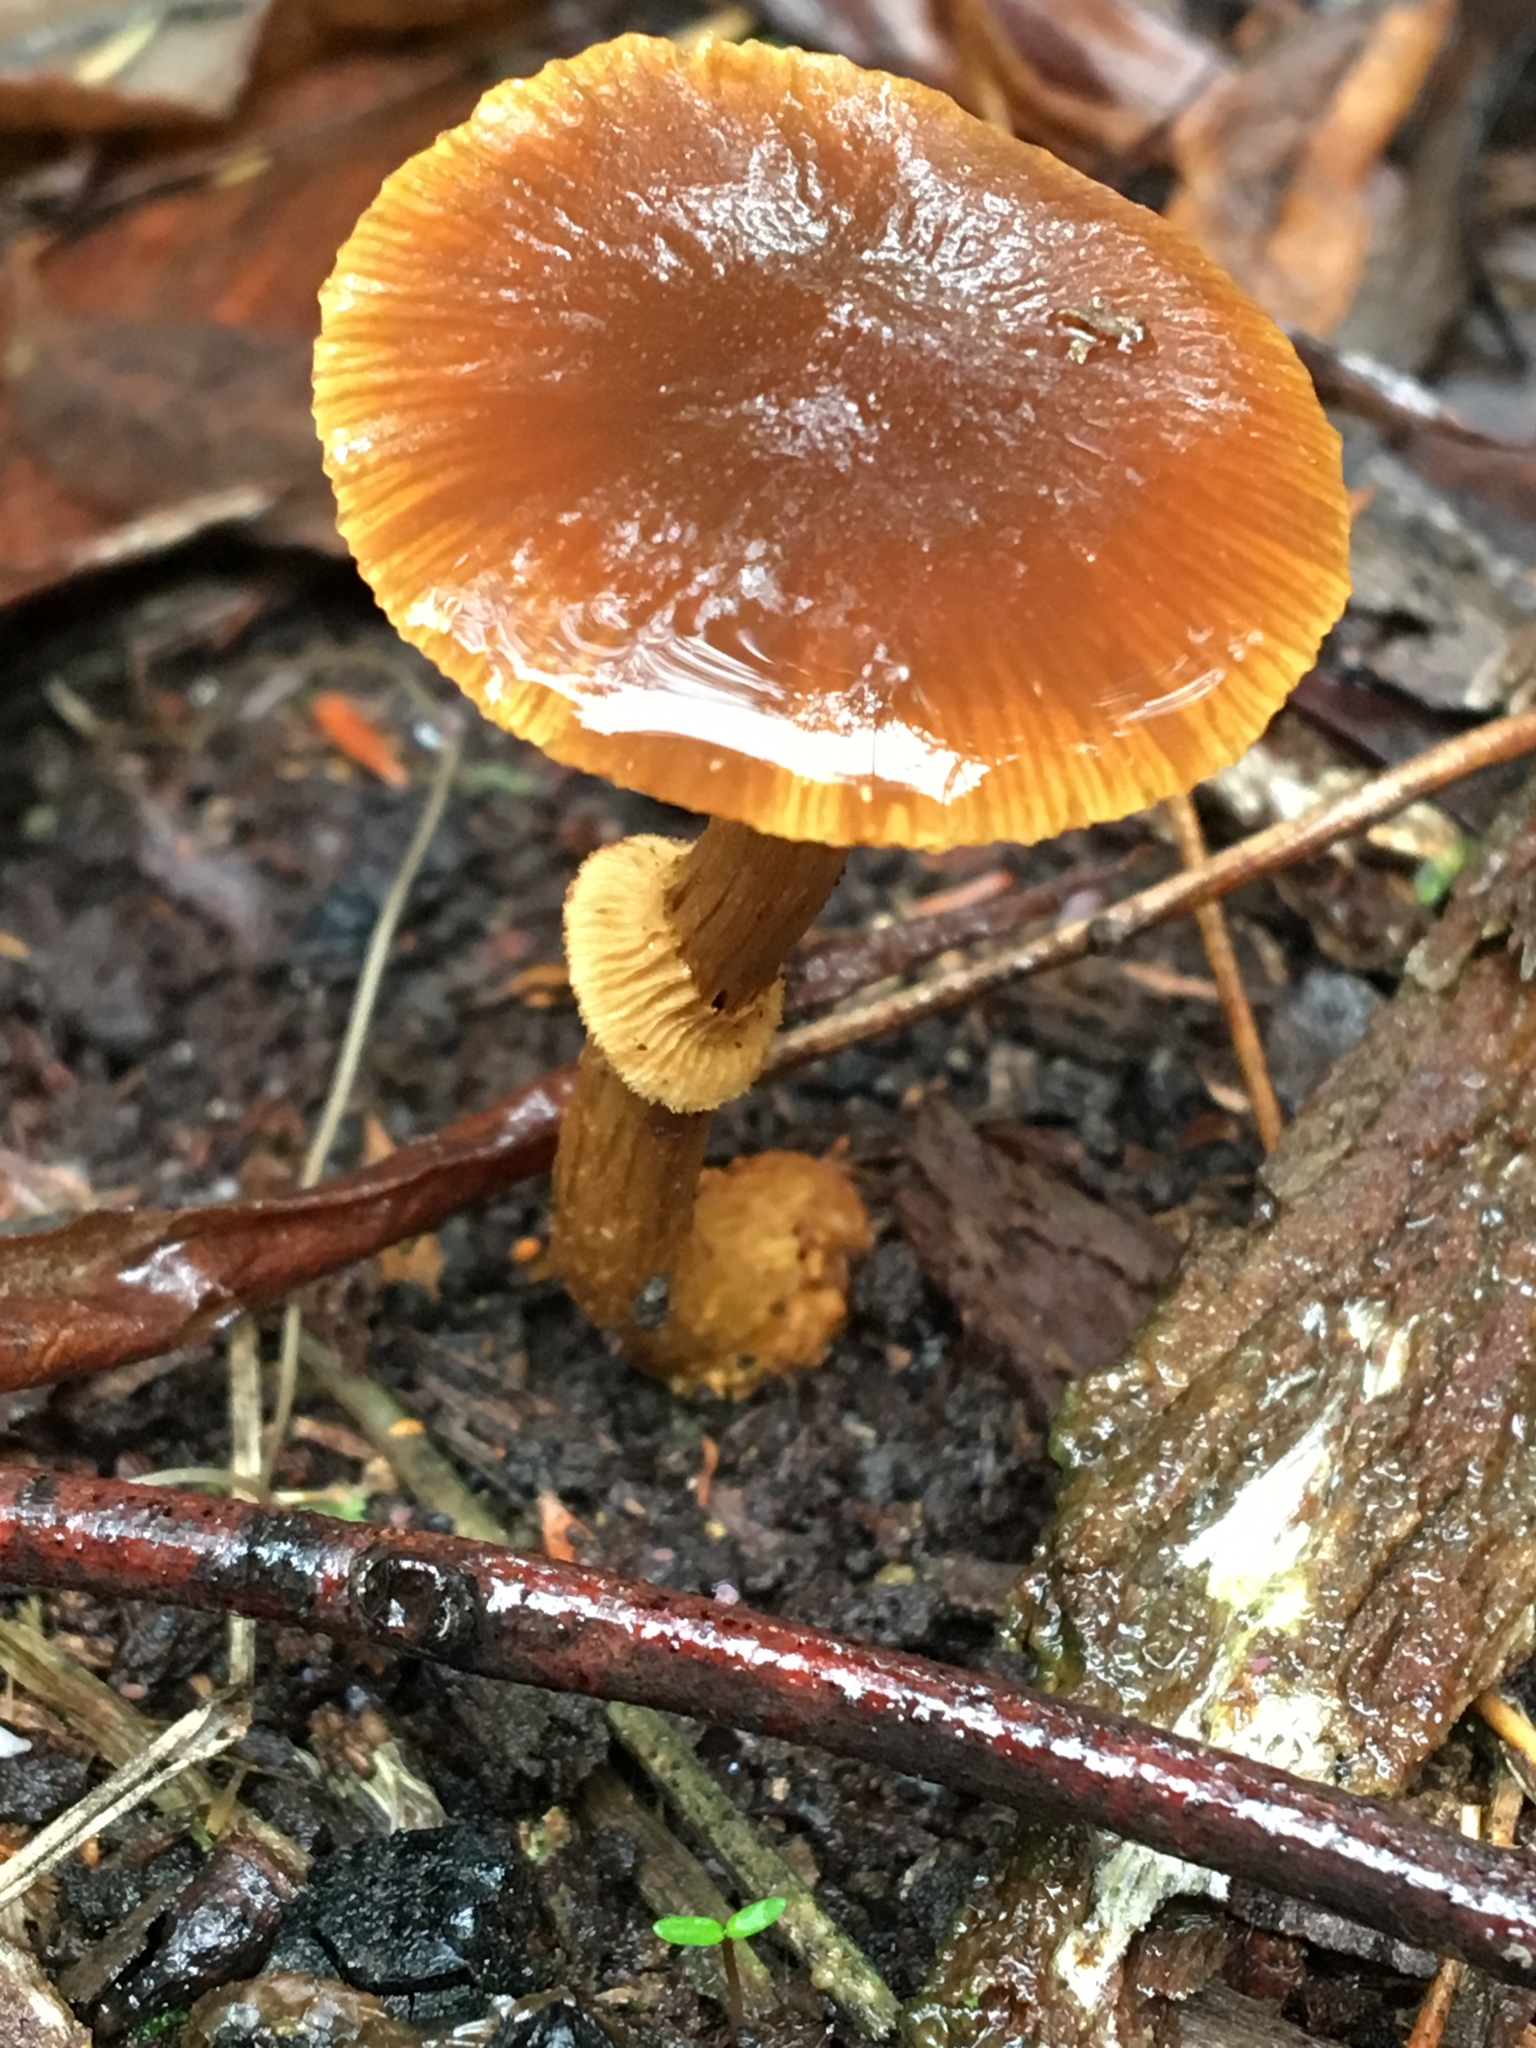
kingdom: Fungi
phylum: Basidiomycota
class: Agaricomycetes
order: Agaricales
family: Bolbitiaceae
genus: Descolea
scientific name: Descolea recedens
